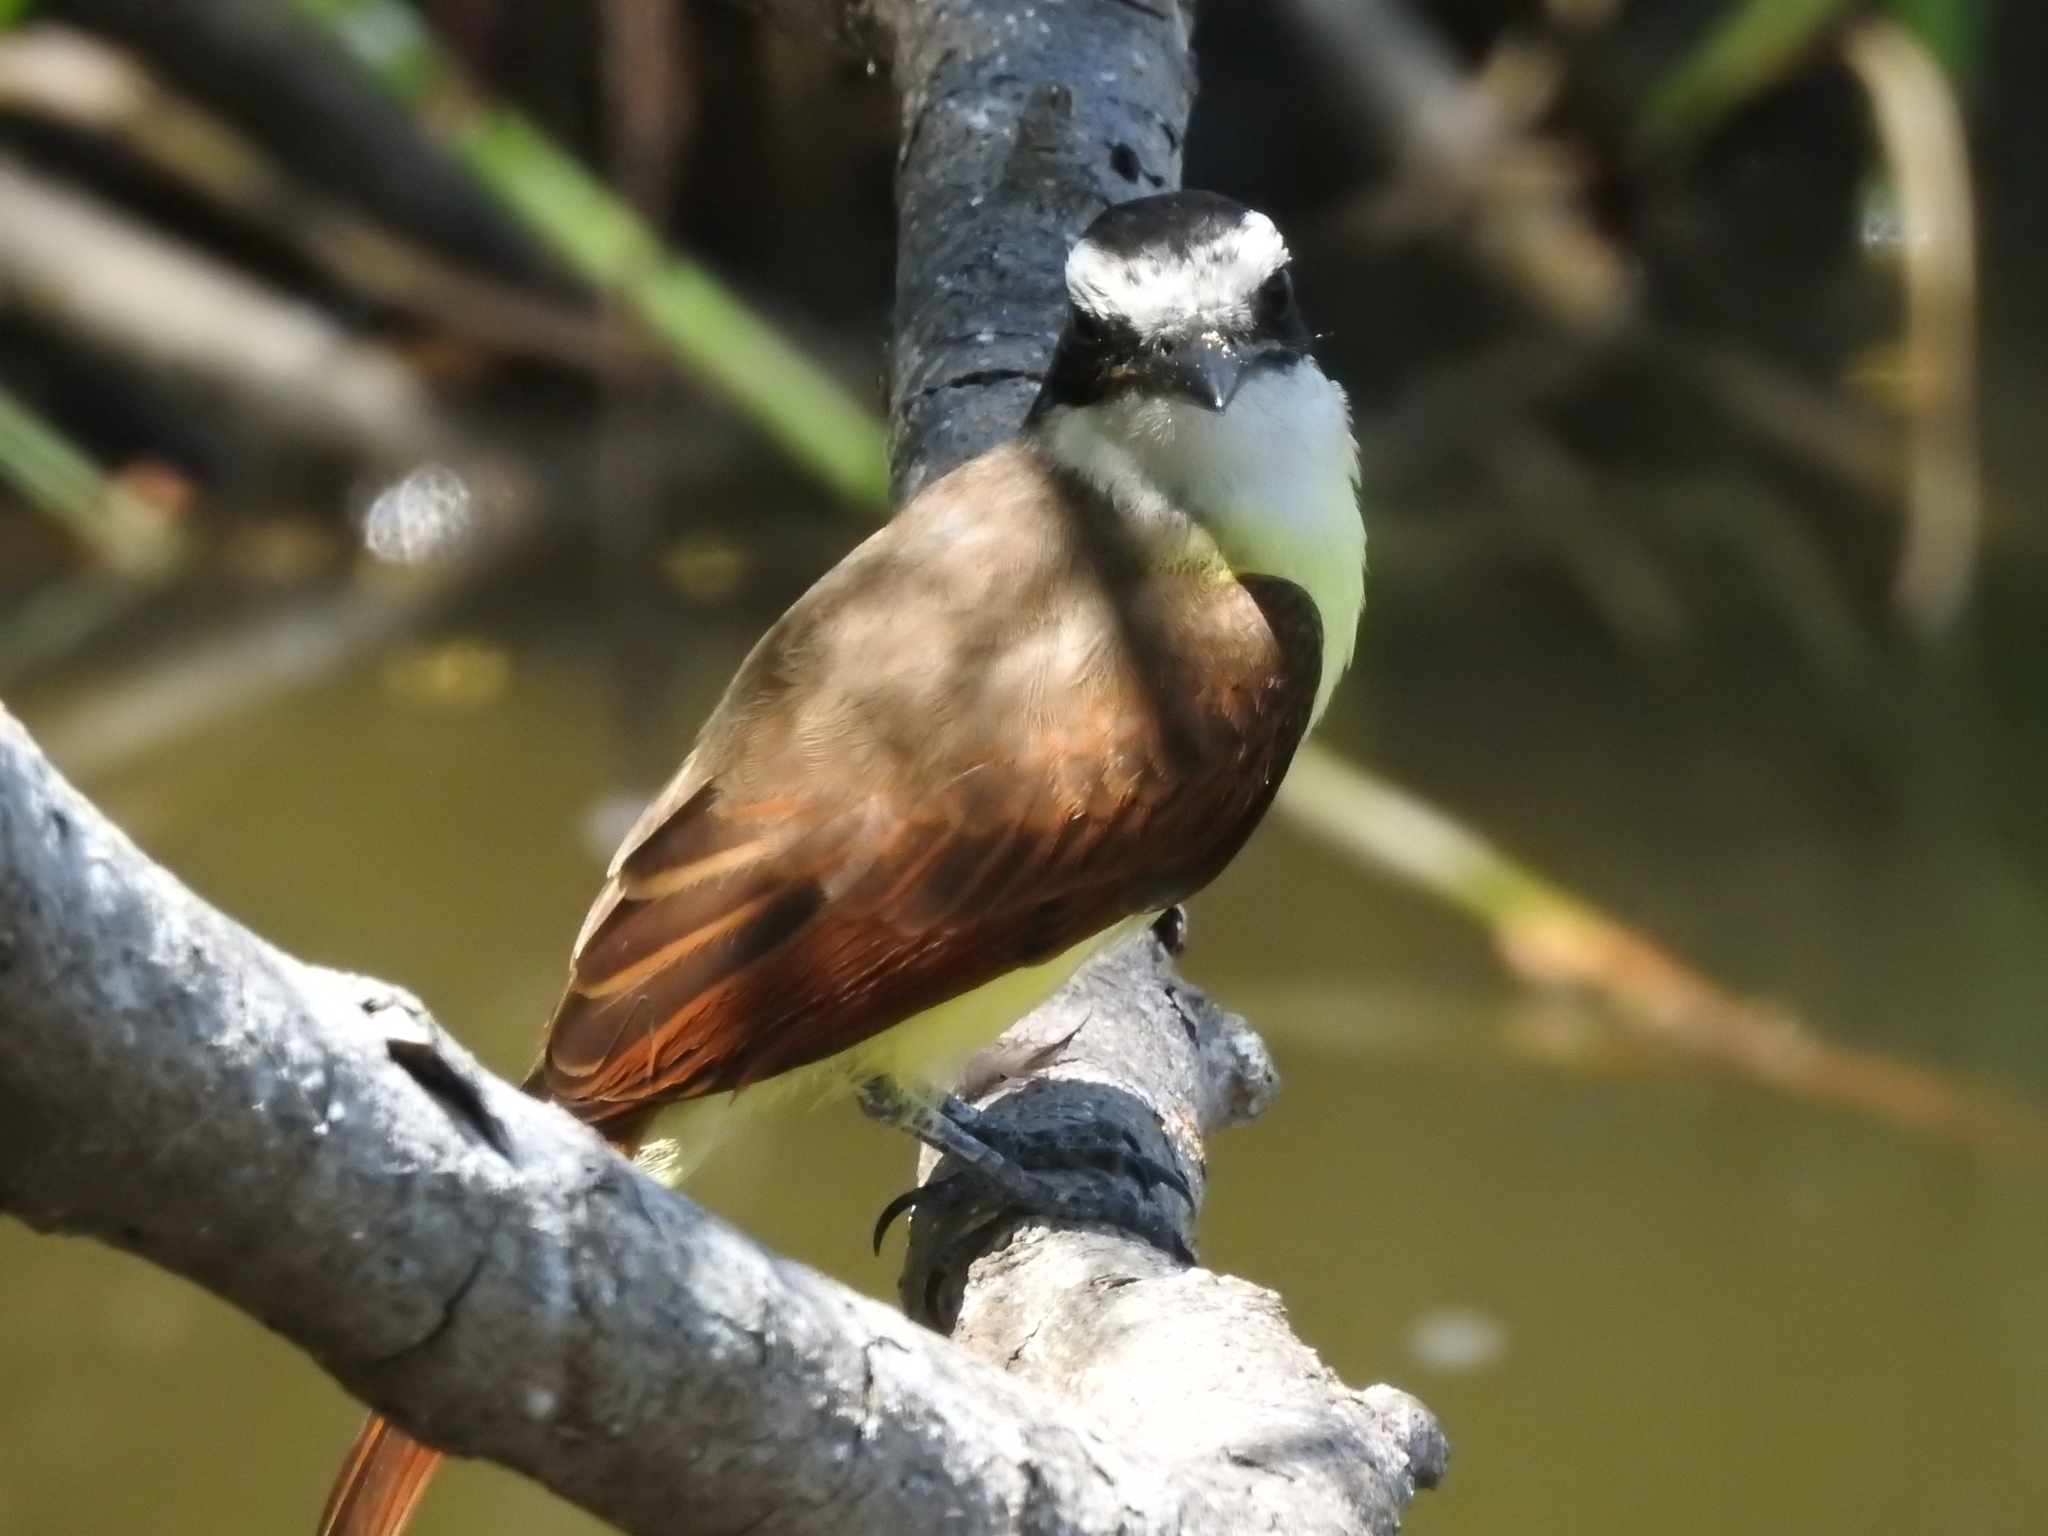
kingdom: Animalia
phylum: Chordata
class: Aves
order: Passeriformes
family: Tyrannidae
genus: Pitangus
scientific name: Pitangus sulphuratus
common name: Great kiskadee
